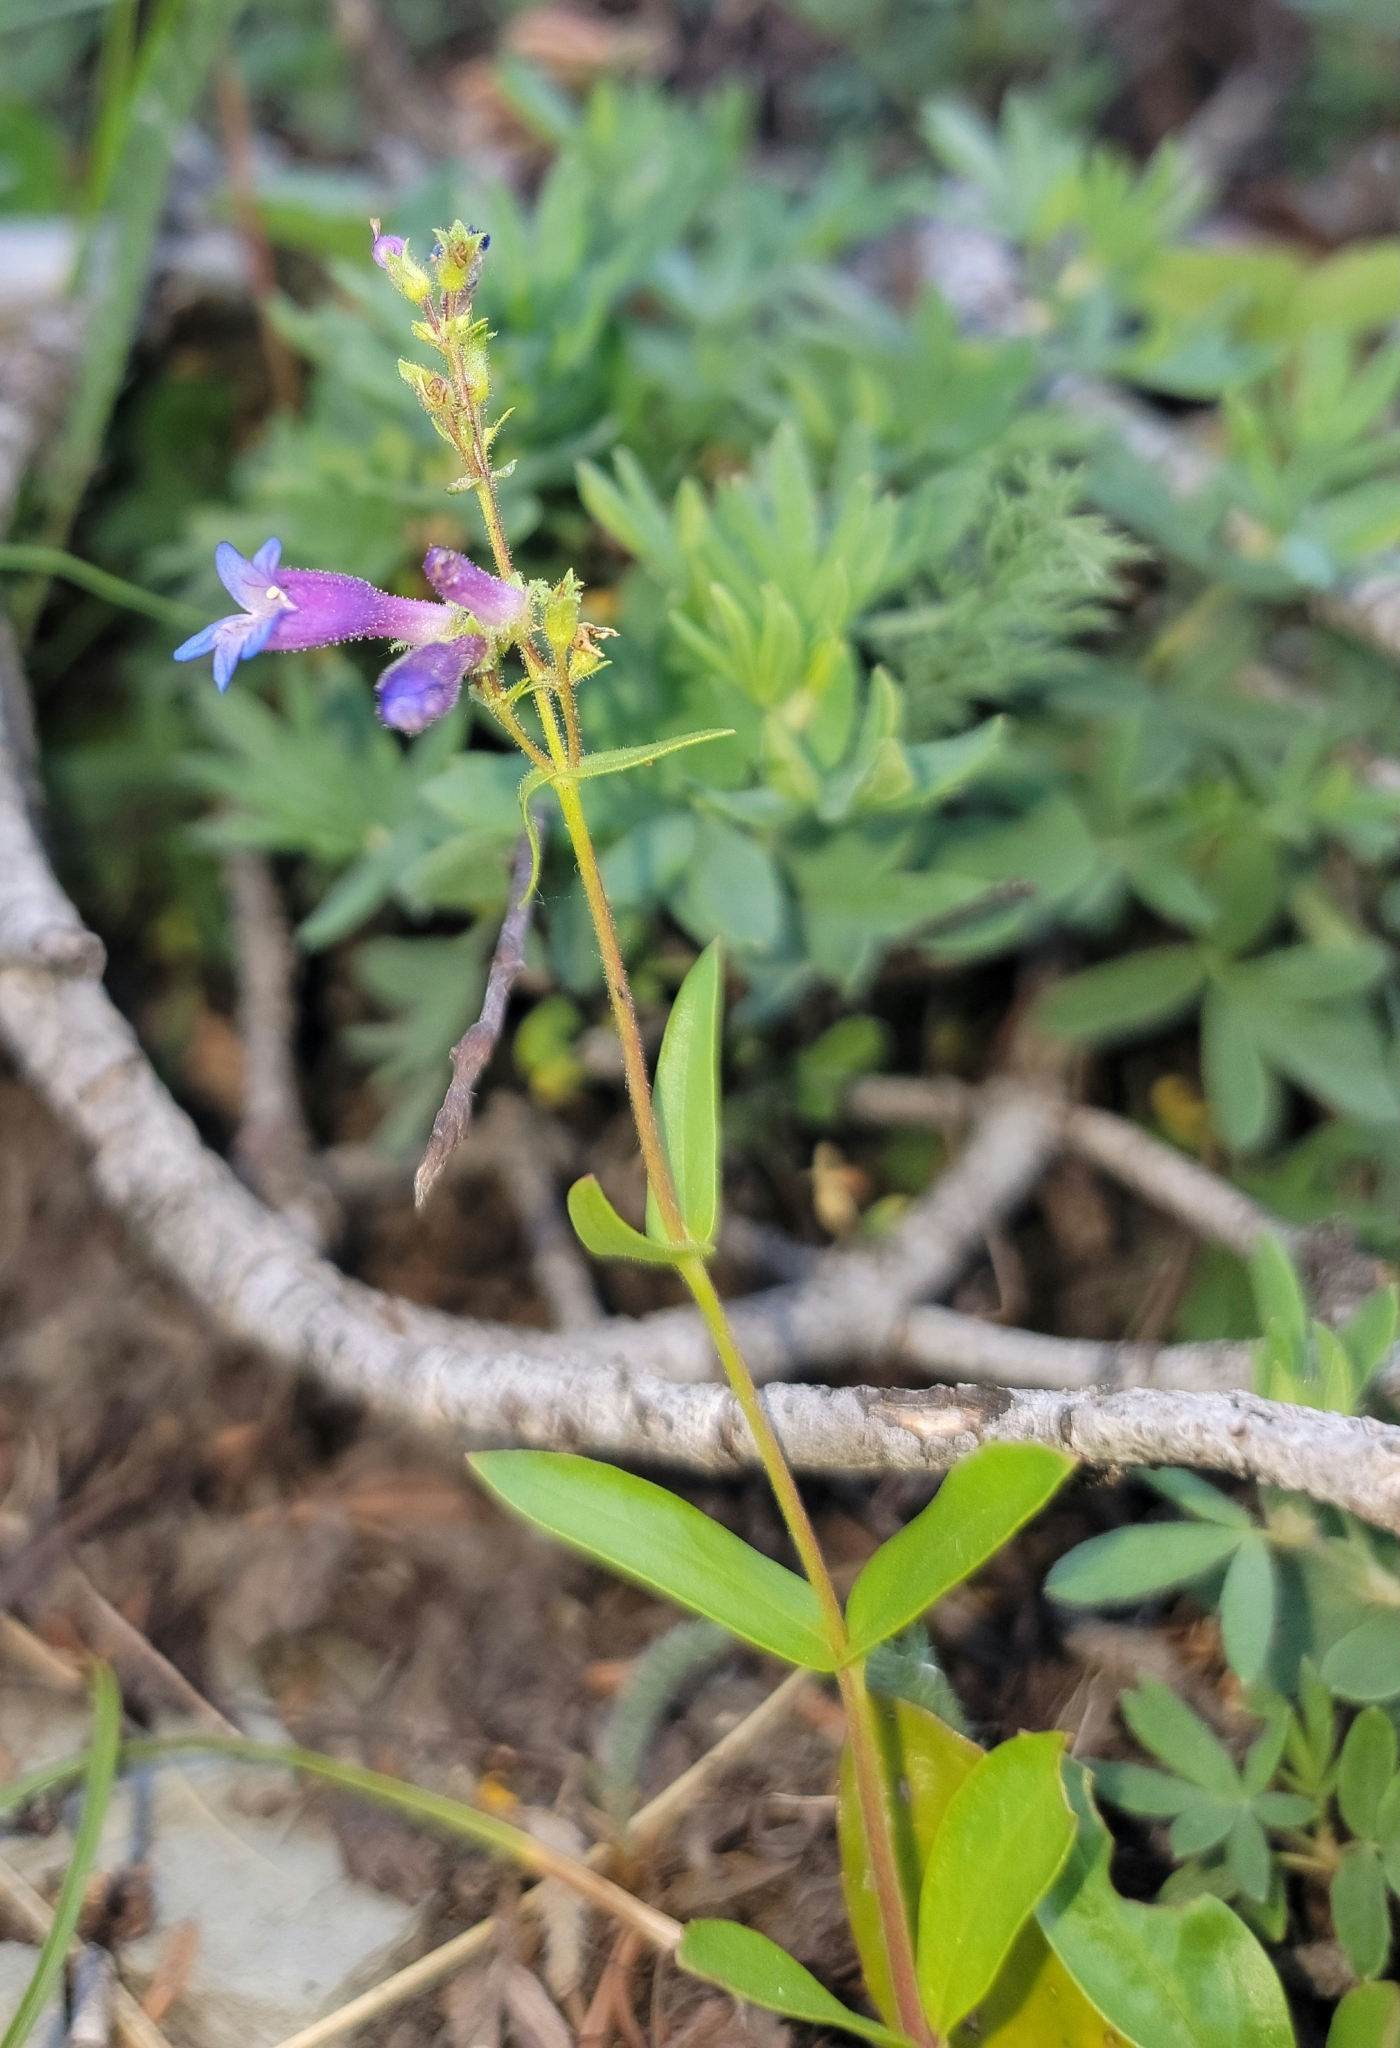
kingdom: Plantae
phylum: Tracheophyta
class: Magnoliopsida
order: Lamiales
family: Plantaginaceae
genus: Penstemon
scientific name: Penstemon albertinus
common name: Alberta beardtongue
